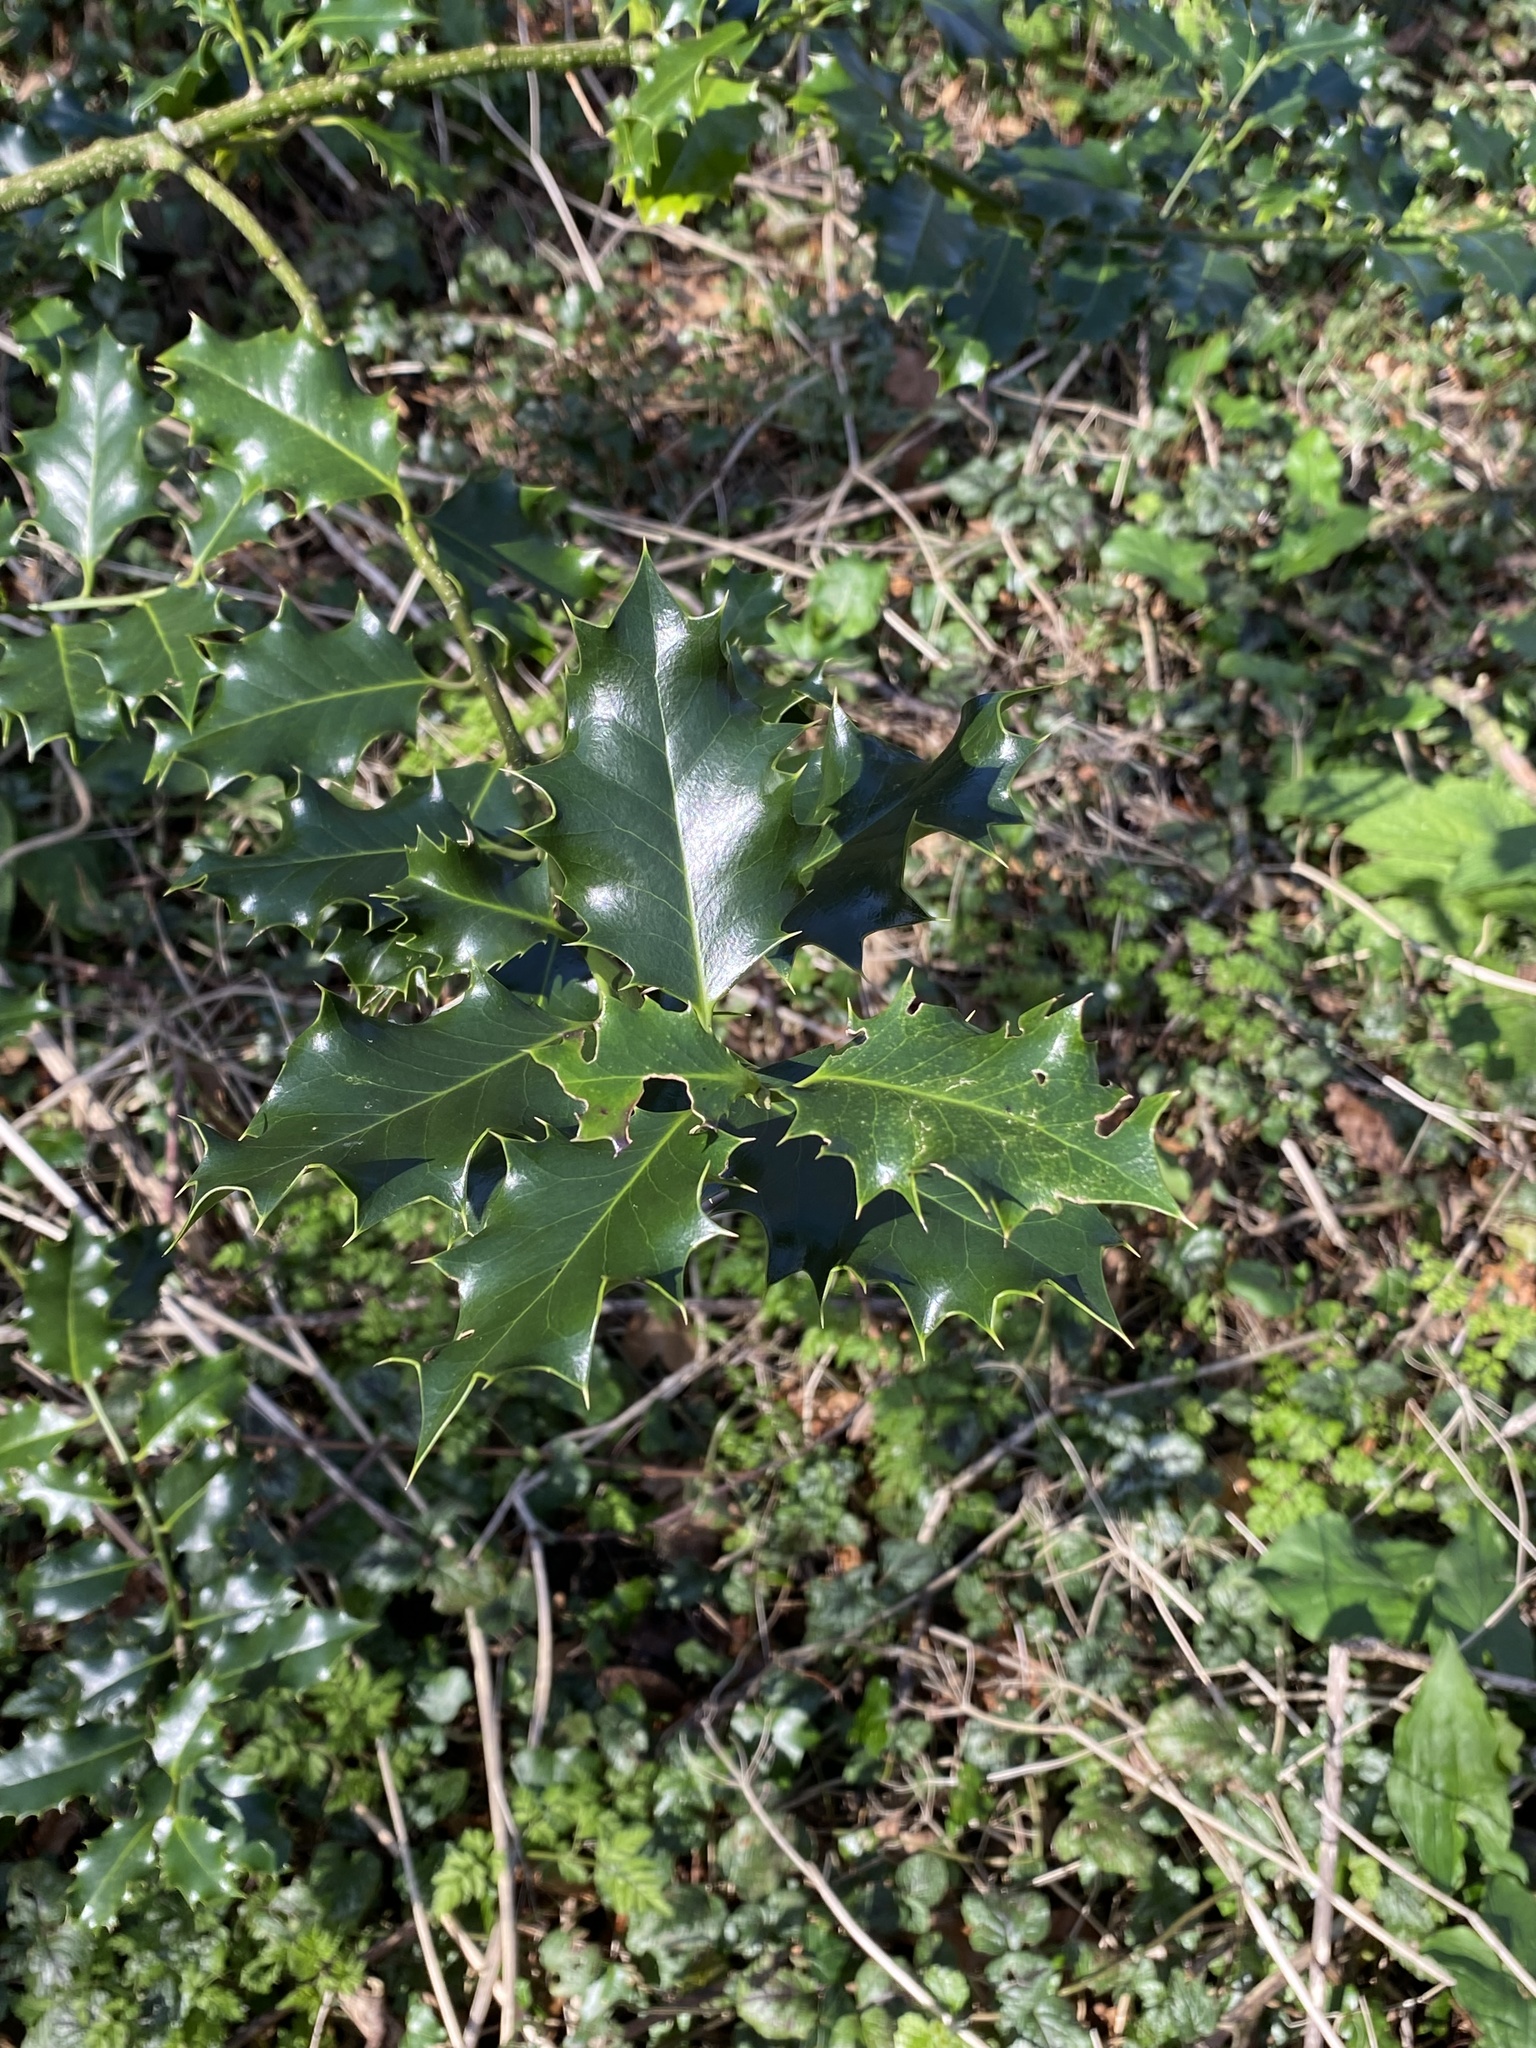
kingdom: Plantae
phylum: Tracheophyta
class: Magnoliopsida
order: Aquifoliales
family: Aquifoliaceae
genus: Ilex
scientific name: Ilex aquifolium
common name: English holly
